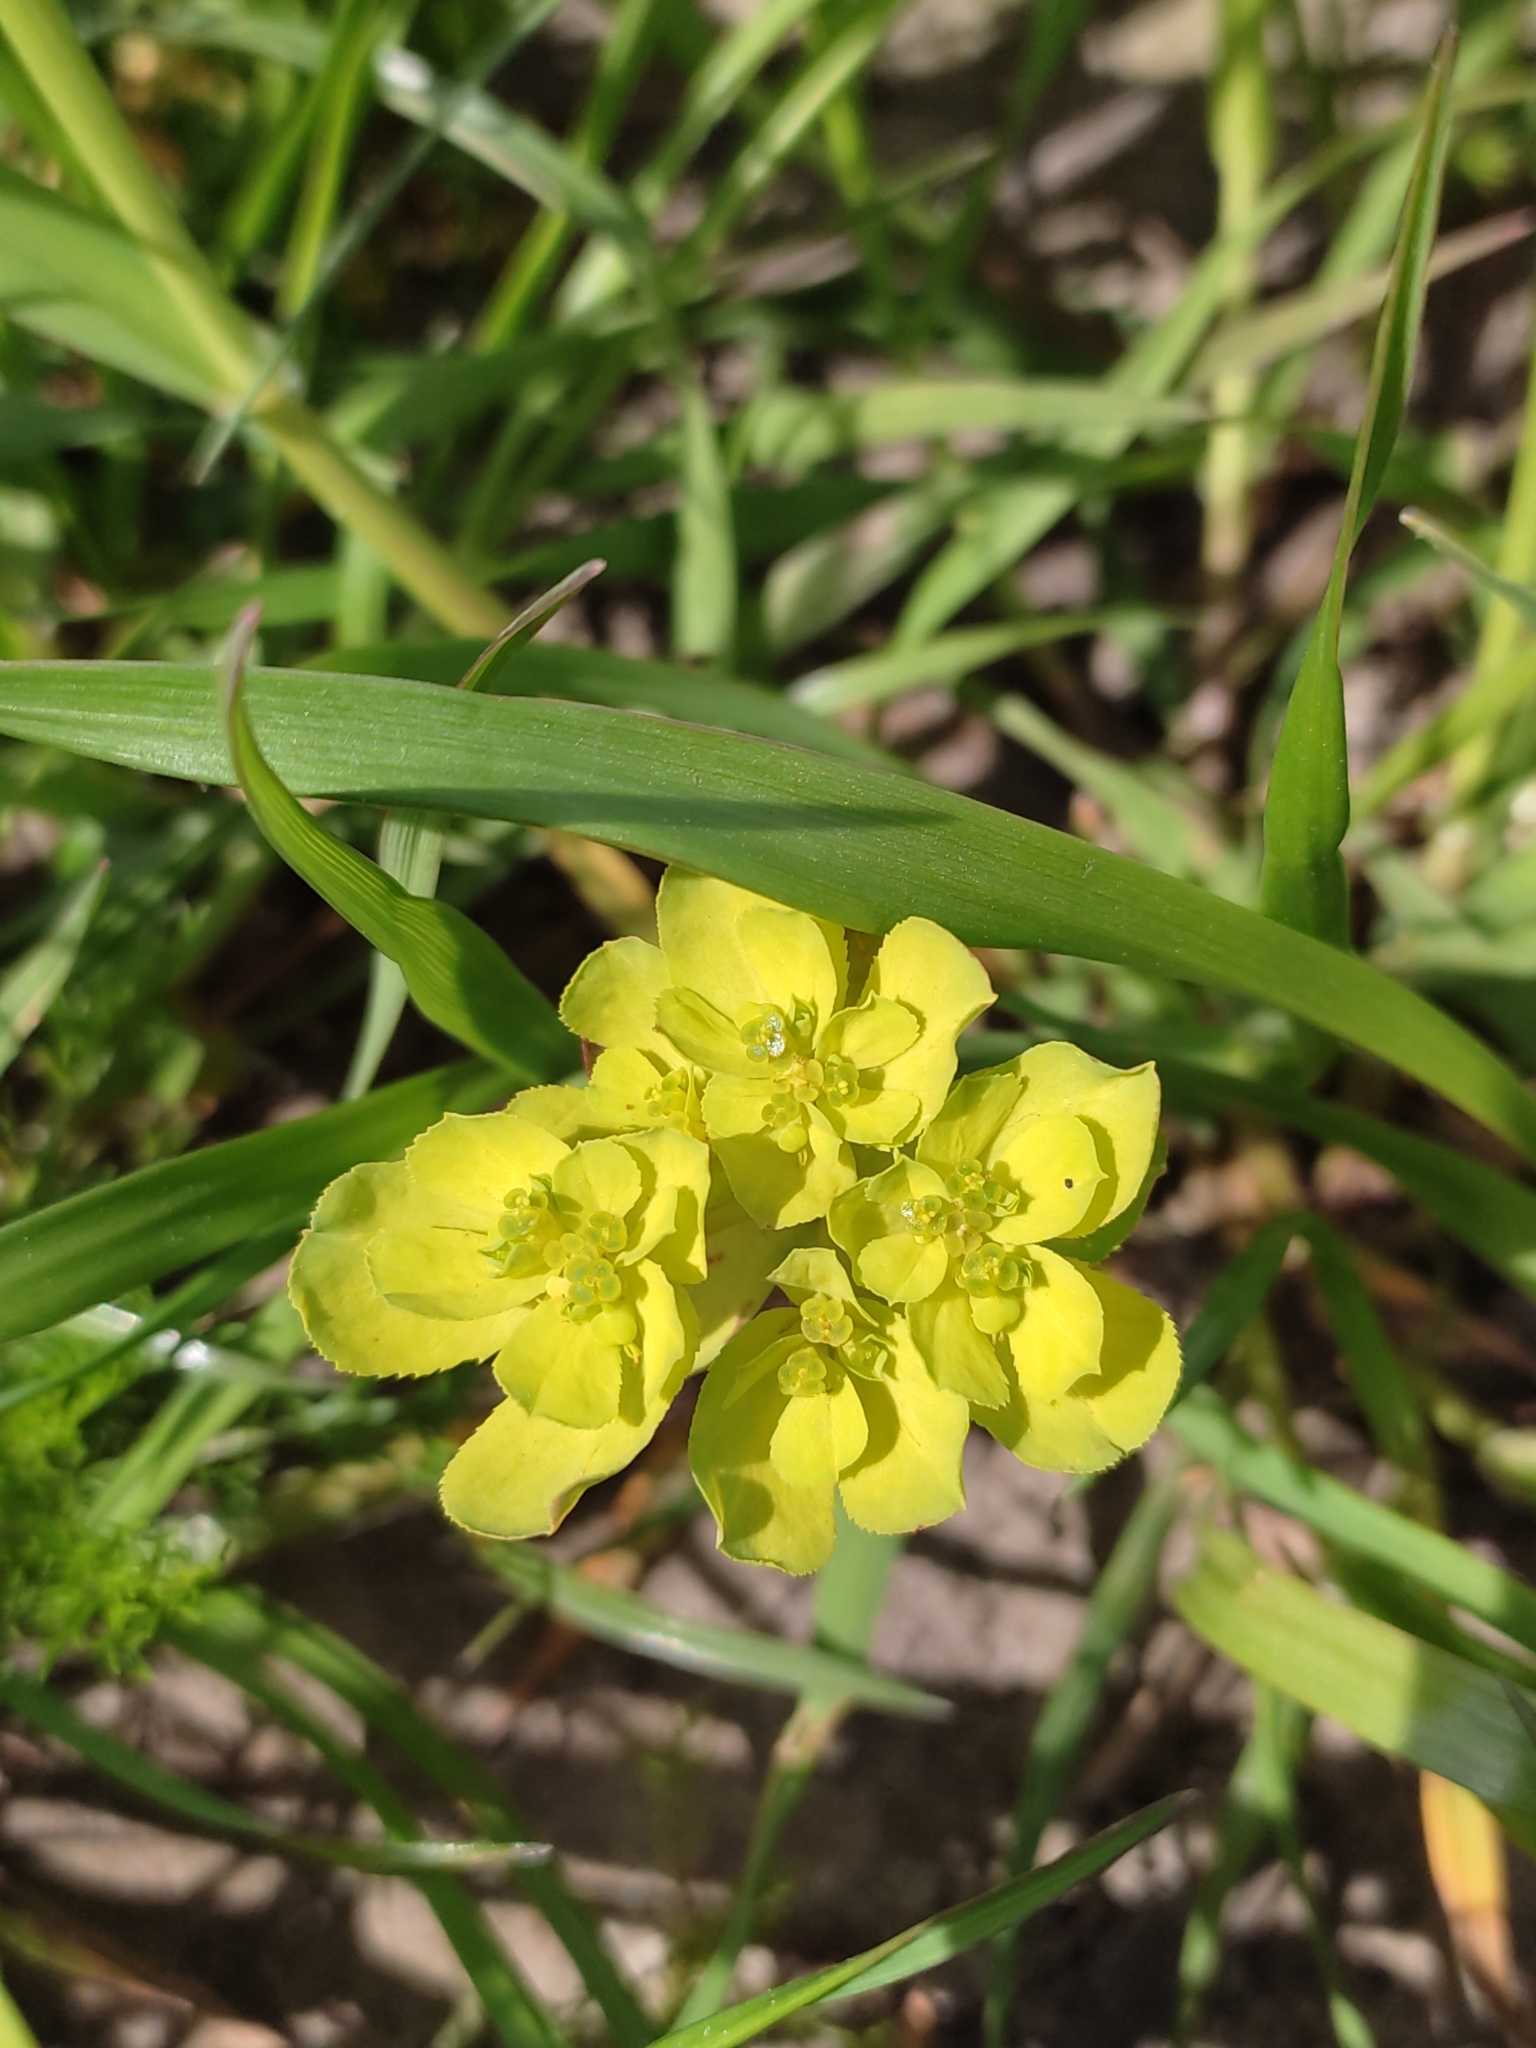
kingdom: Plantae
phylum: Tracheophyta
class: Magnoliopsida
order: Malpighiales
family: Euphorbiaceae
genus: Euphorbia
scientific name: Euphorbia helioscopia
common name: Sun spurge
